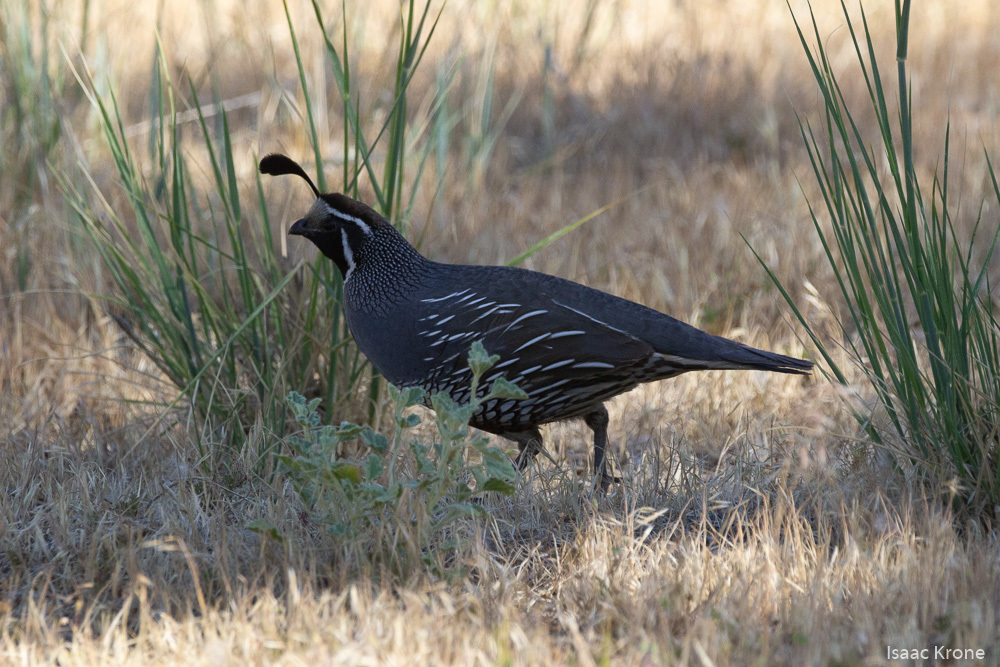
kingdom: Animalia
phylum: Chordata
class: Aves
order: Galliformes
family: Odontophoridae
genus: Callipepla
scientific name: Callipepla californica
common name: California quail
